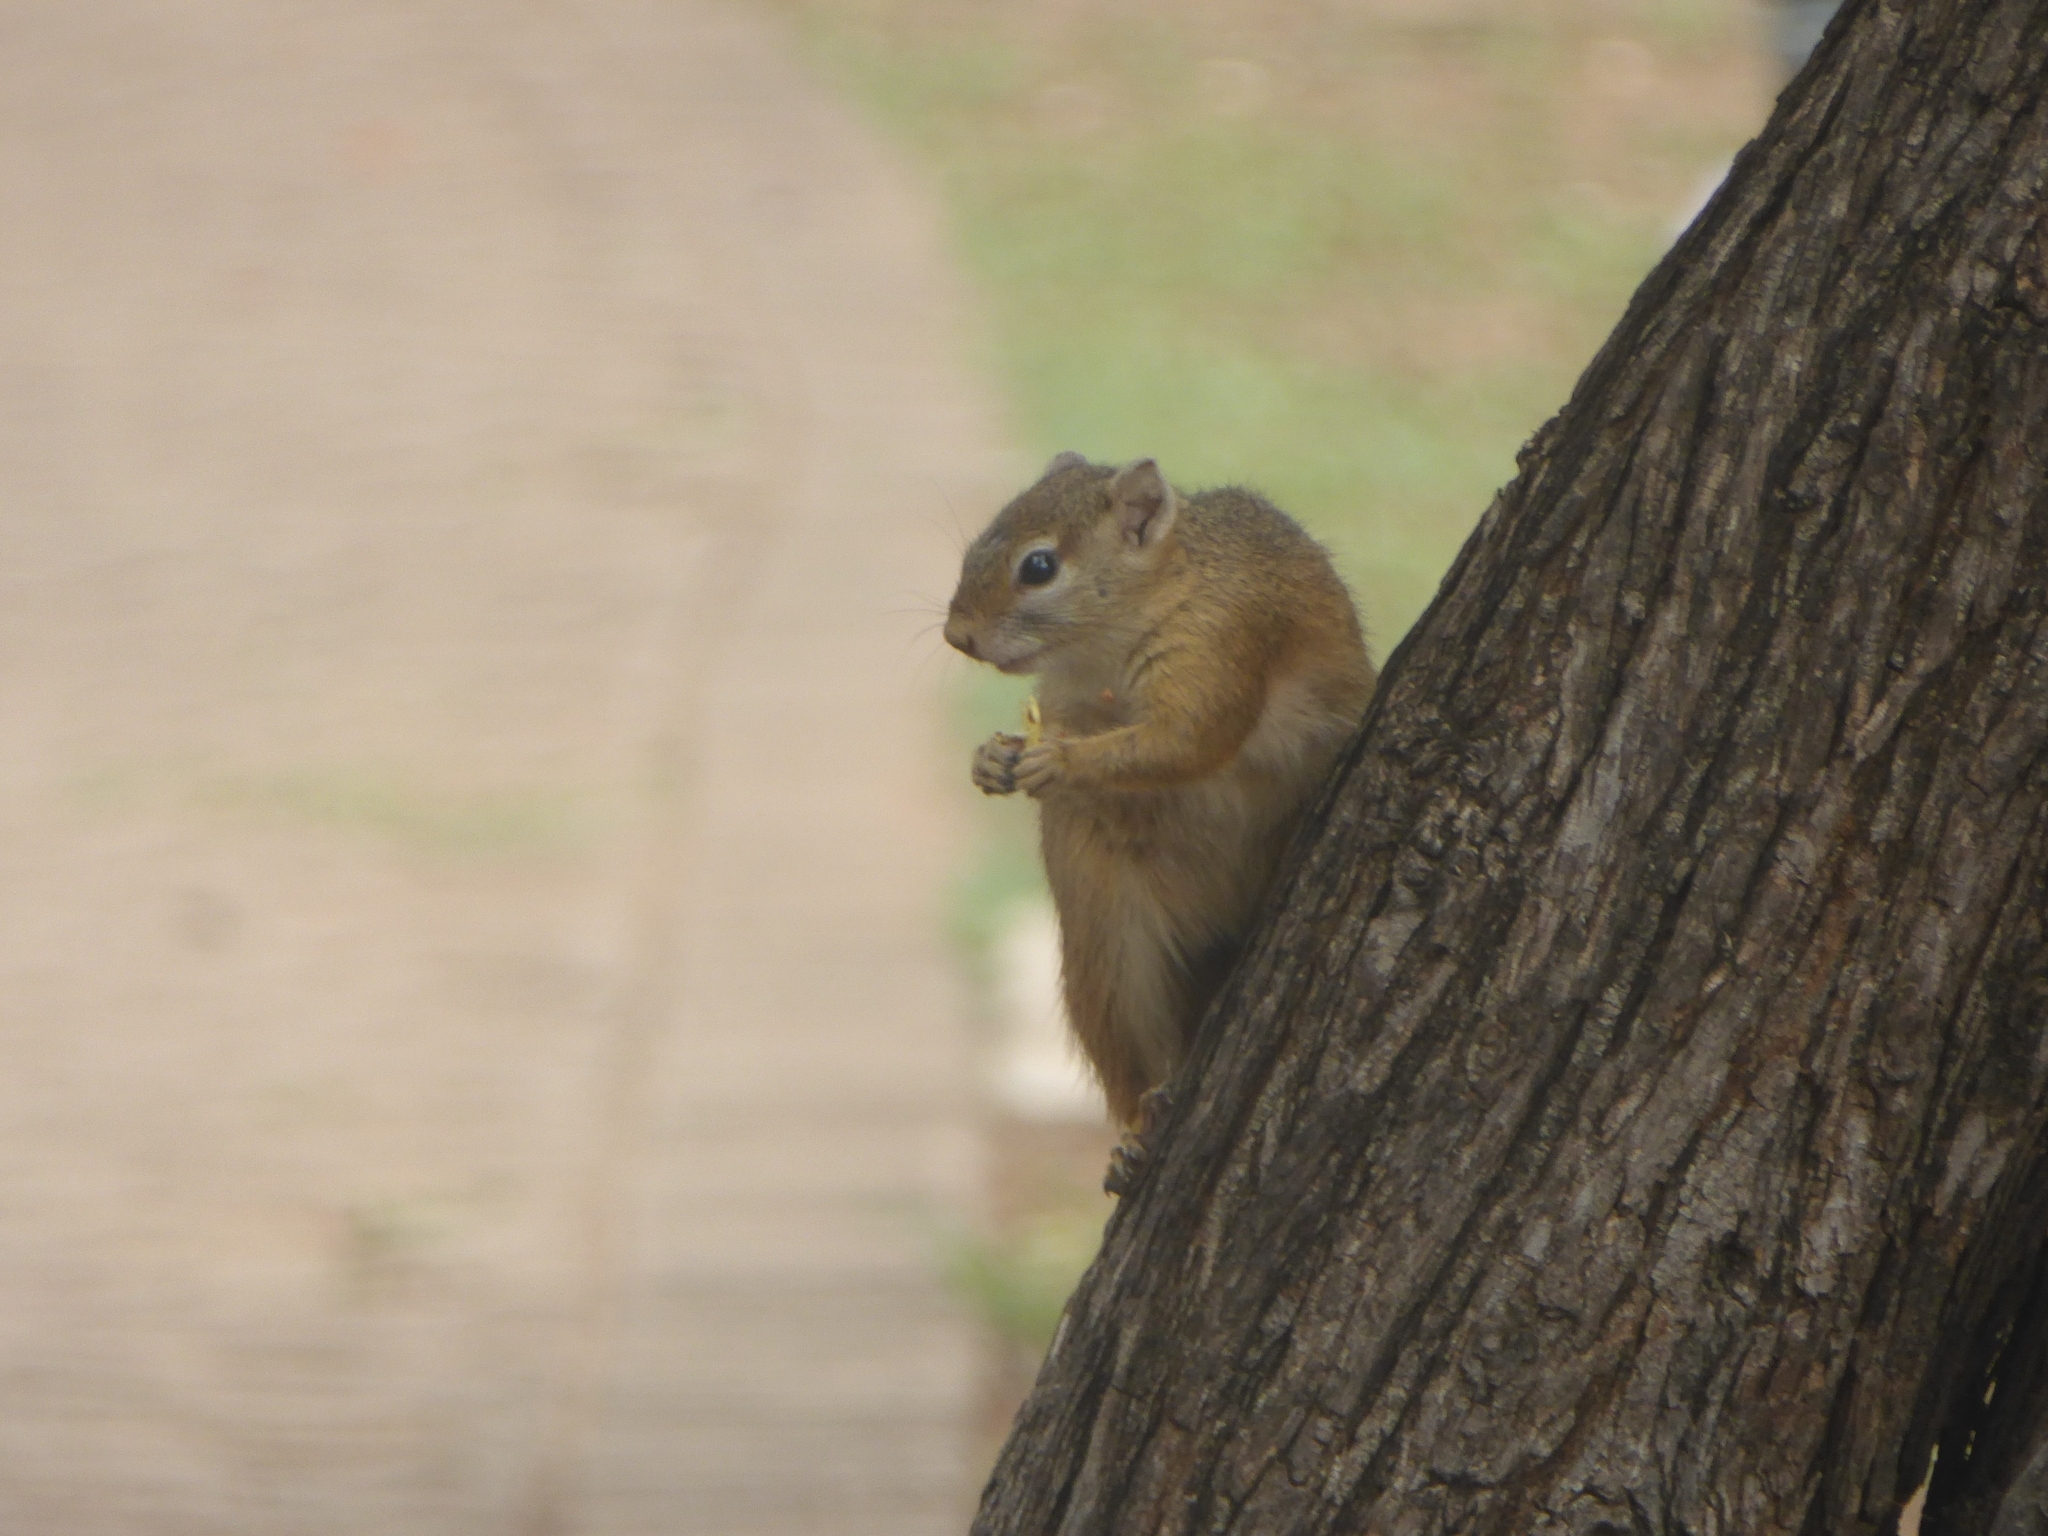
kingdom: Animalia
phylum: Chordata
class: Mammalia
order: Rodentia
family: Sciuridae
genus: Paraxerus
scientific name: Paraxerus cepapi
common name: Smith's bush squirrel
